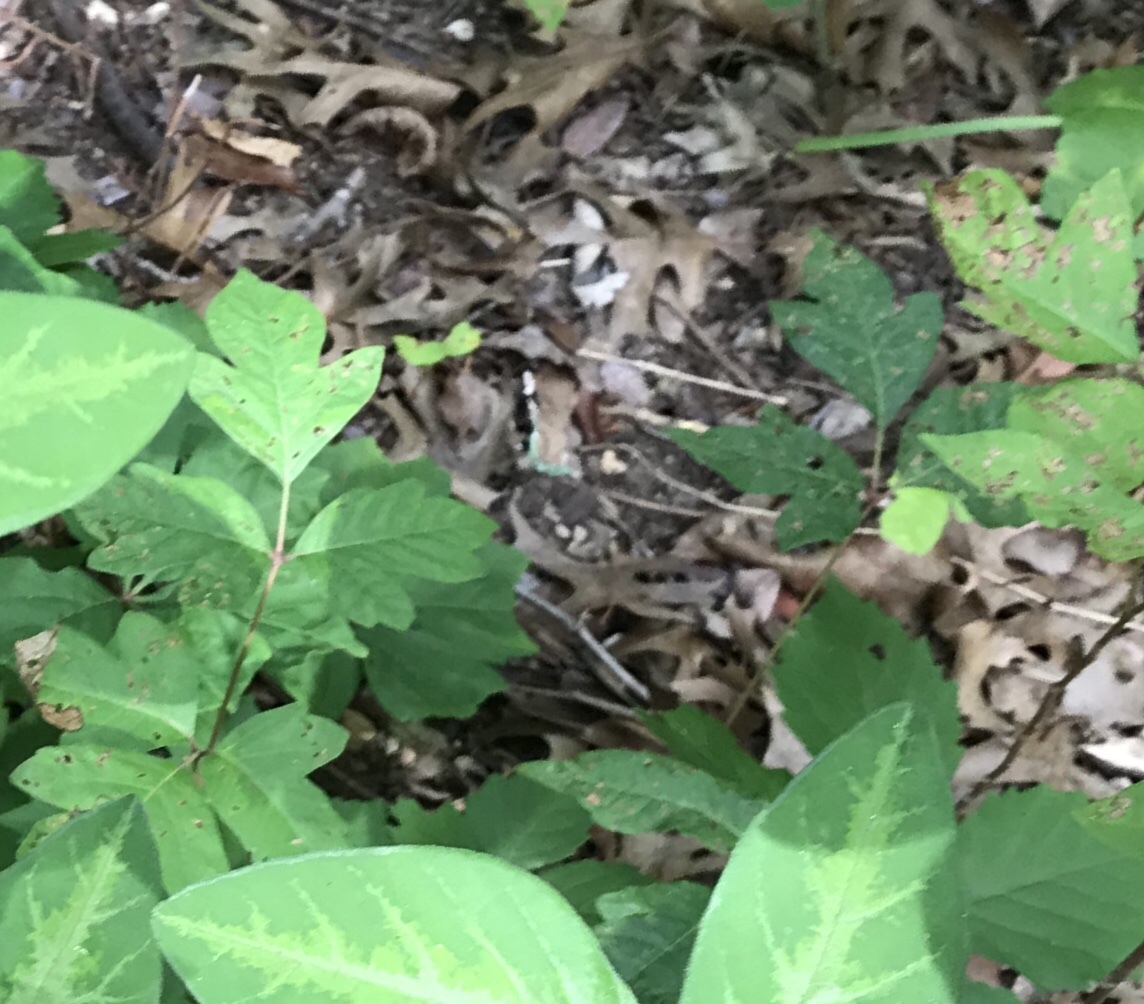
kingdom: Plantae
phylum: Tracheophyta
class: Magnoliopsida
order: Sapindales
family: Anacardiaceae
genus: Toxicodendron
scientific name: Toxicodendron radicans
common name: Poison ivy
